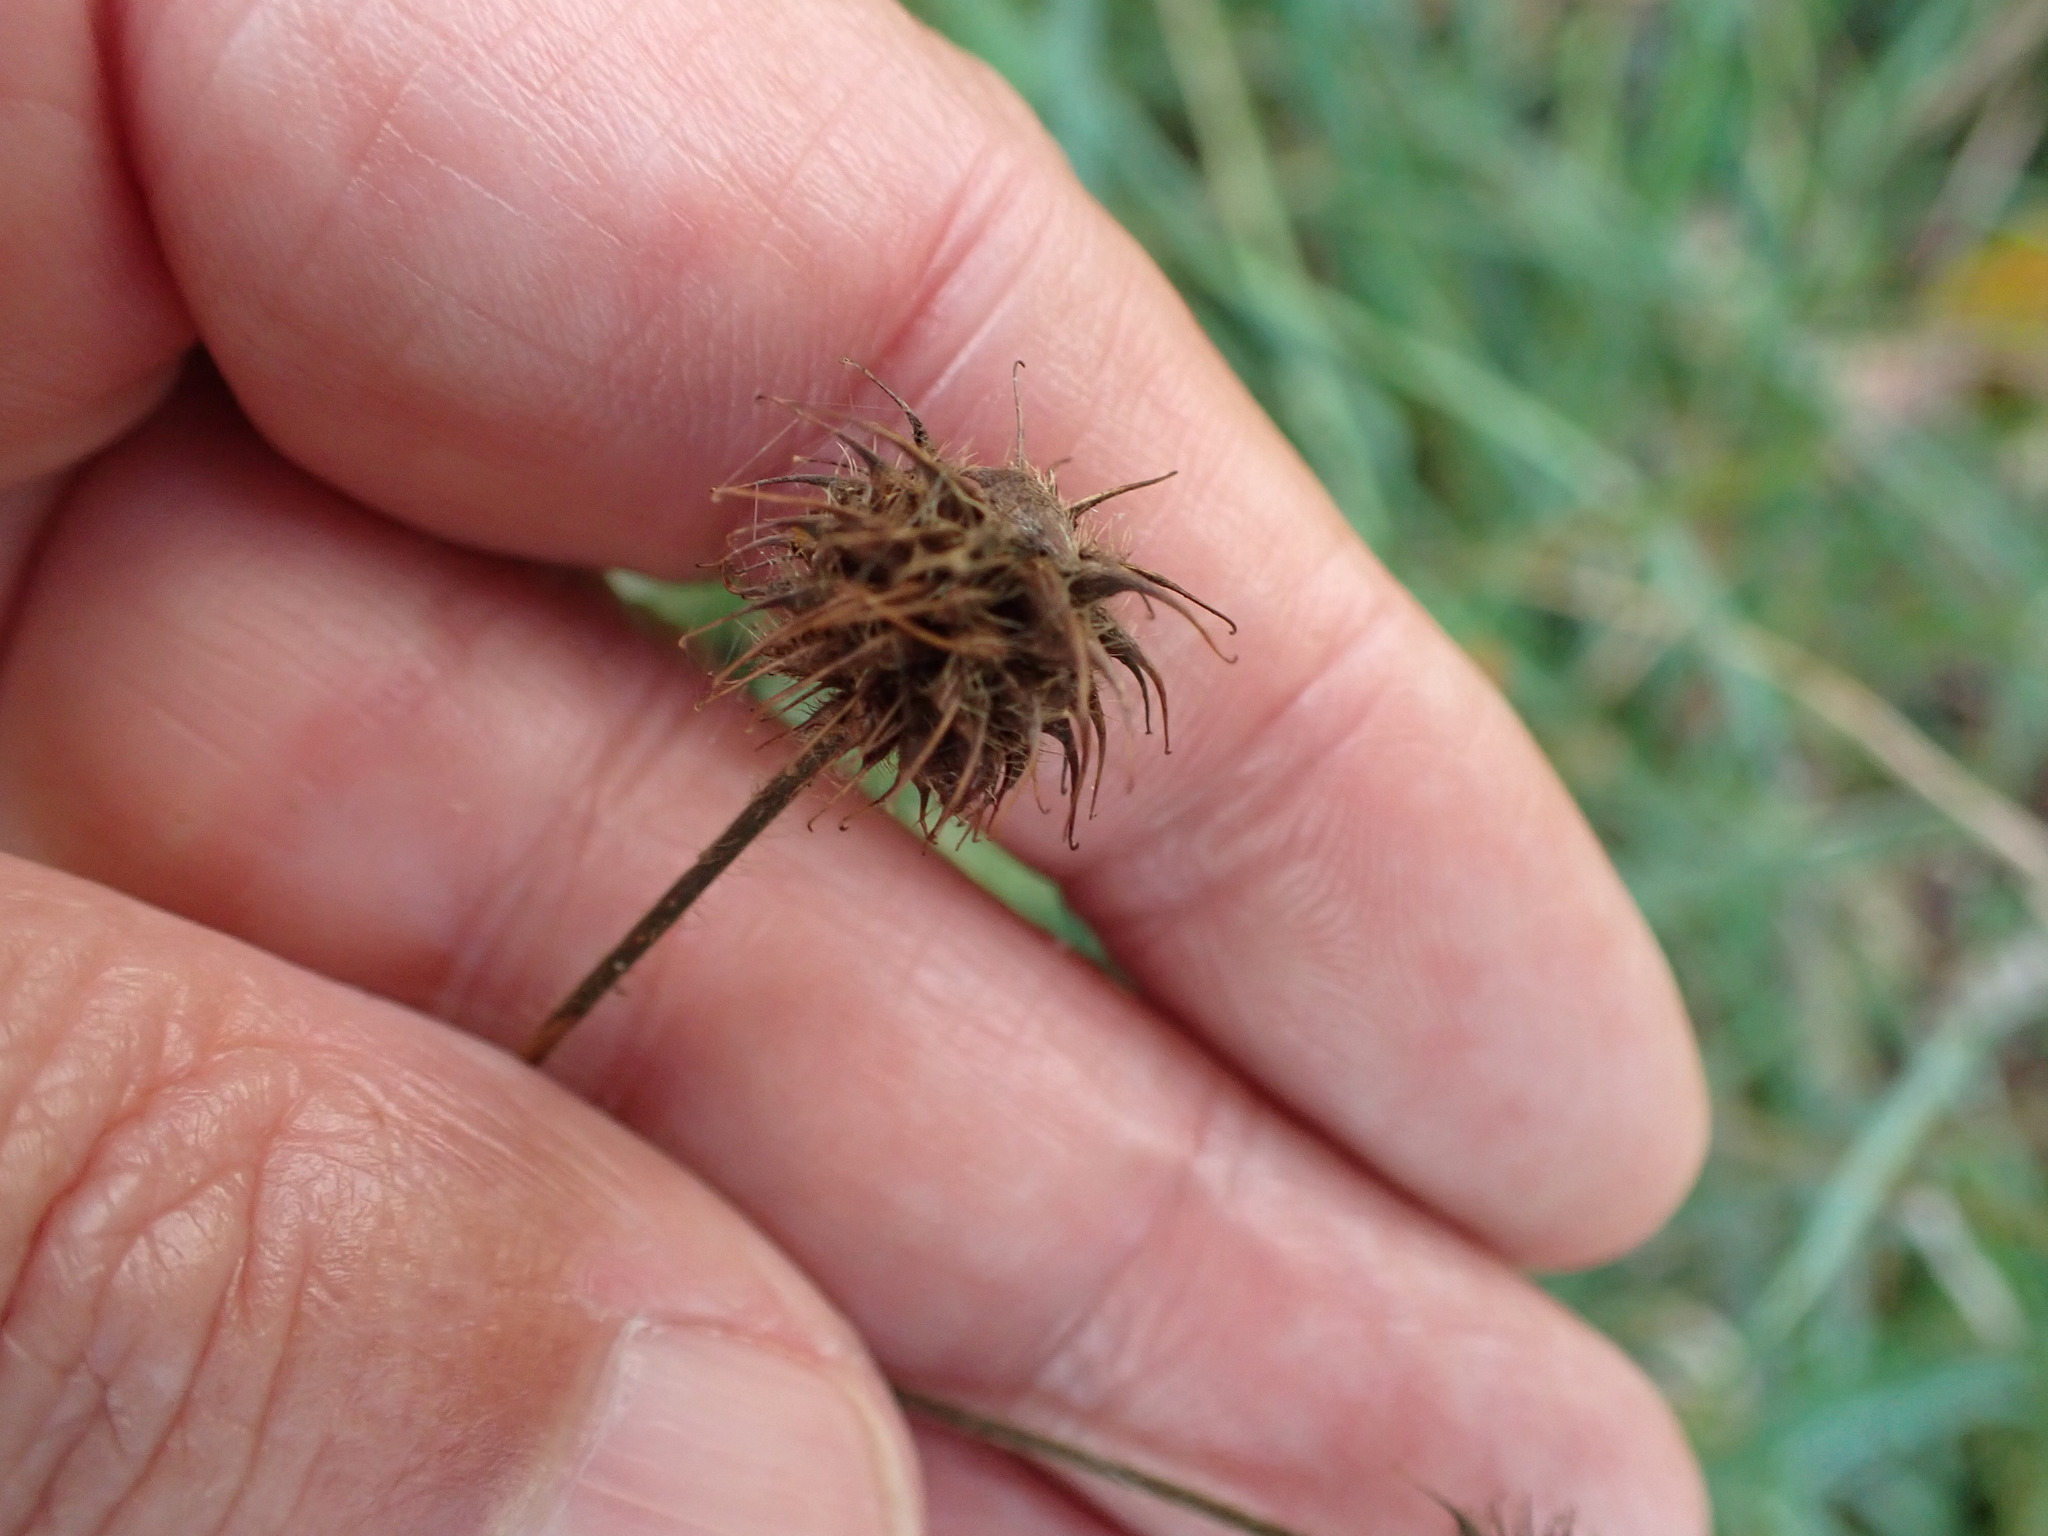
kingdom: Plantae
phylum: Tracheophyta
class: Magnoliopsida
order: Rosales
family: Rosaceae
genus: Geum
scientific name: Geum urbanum
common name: Wood avens
